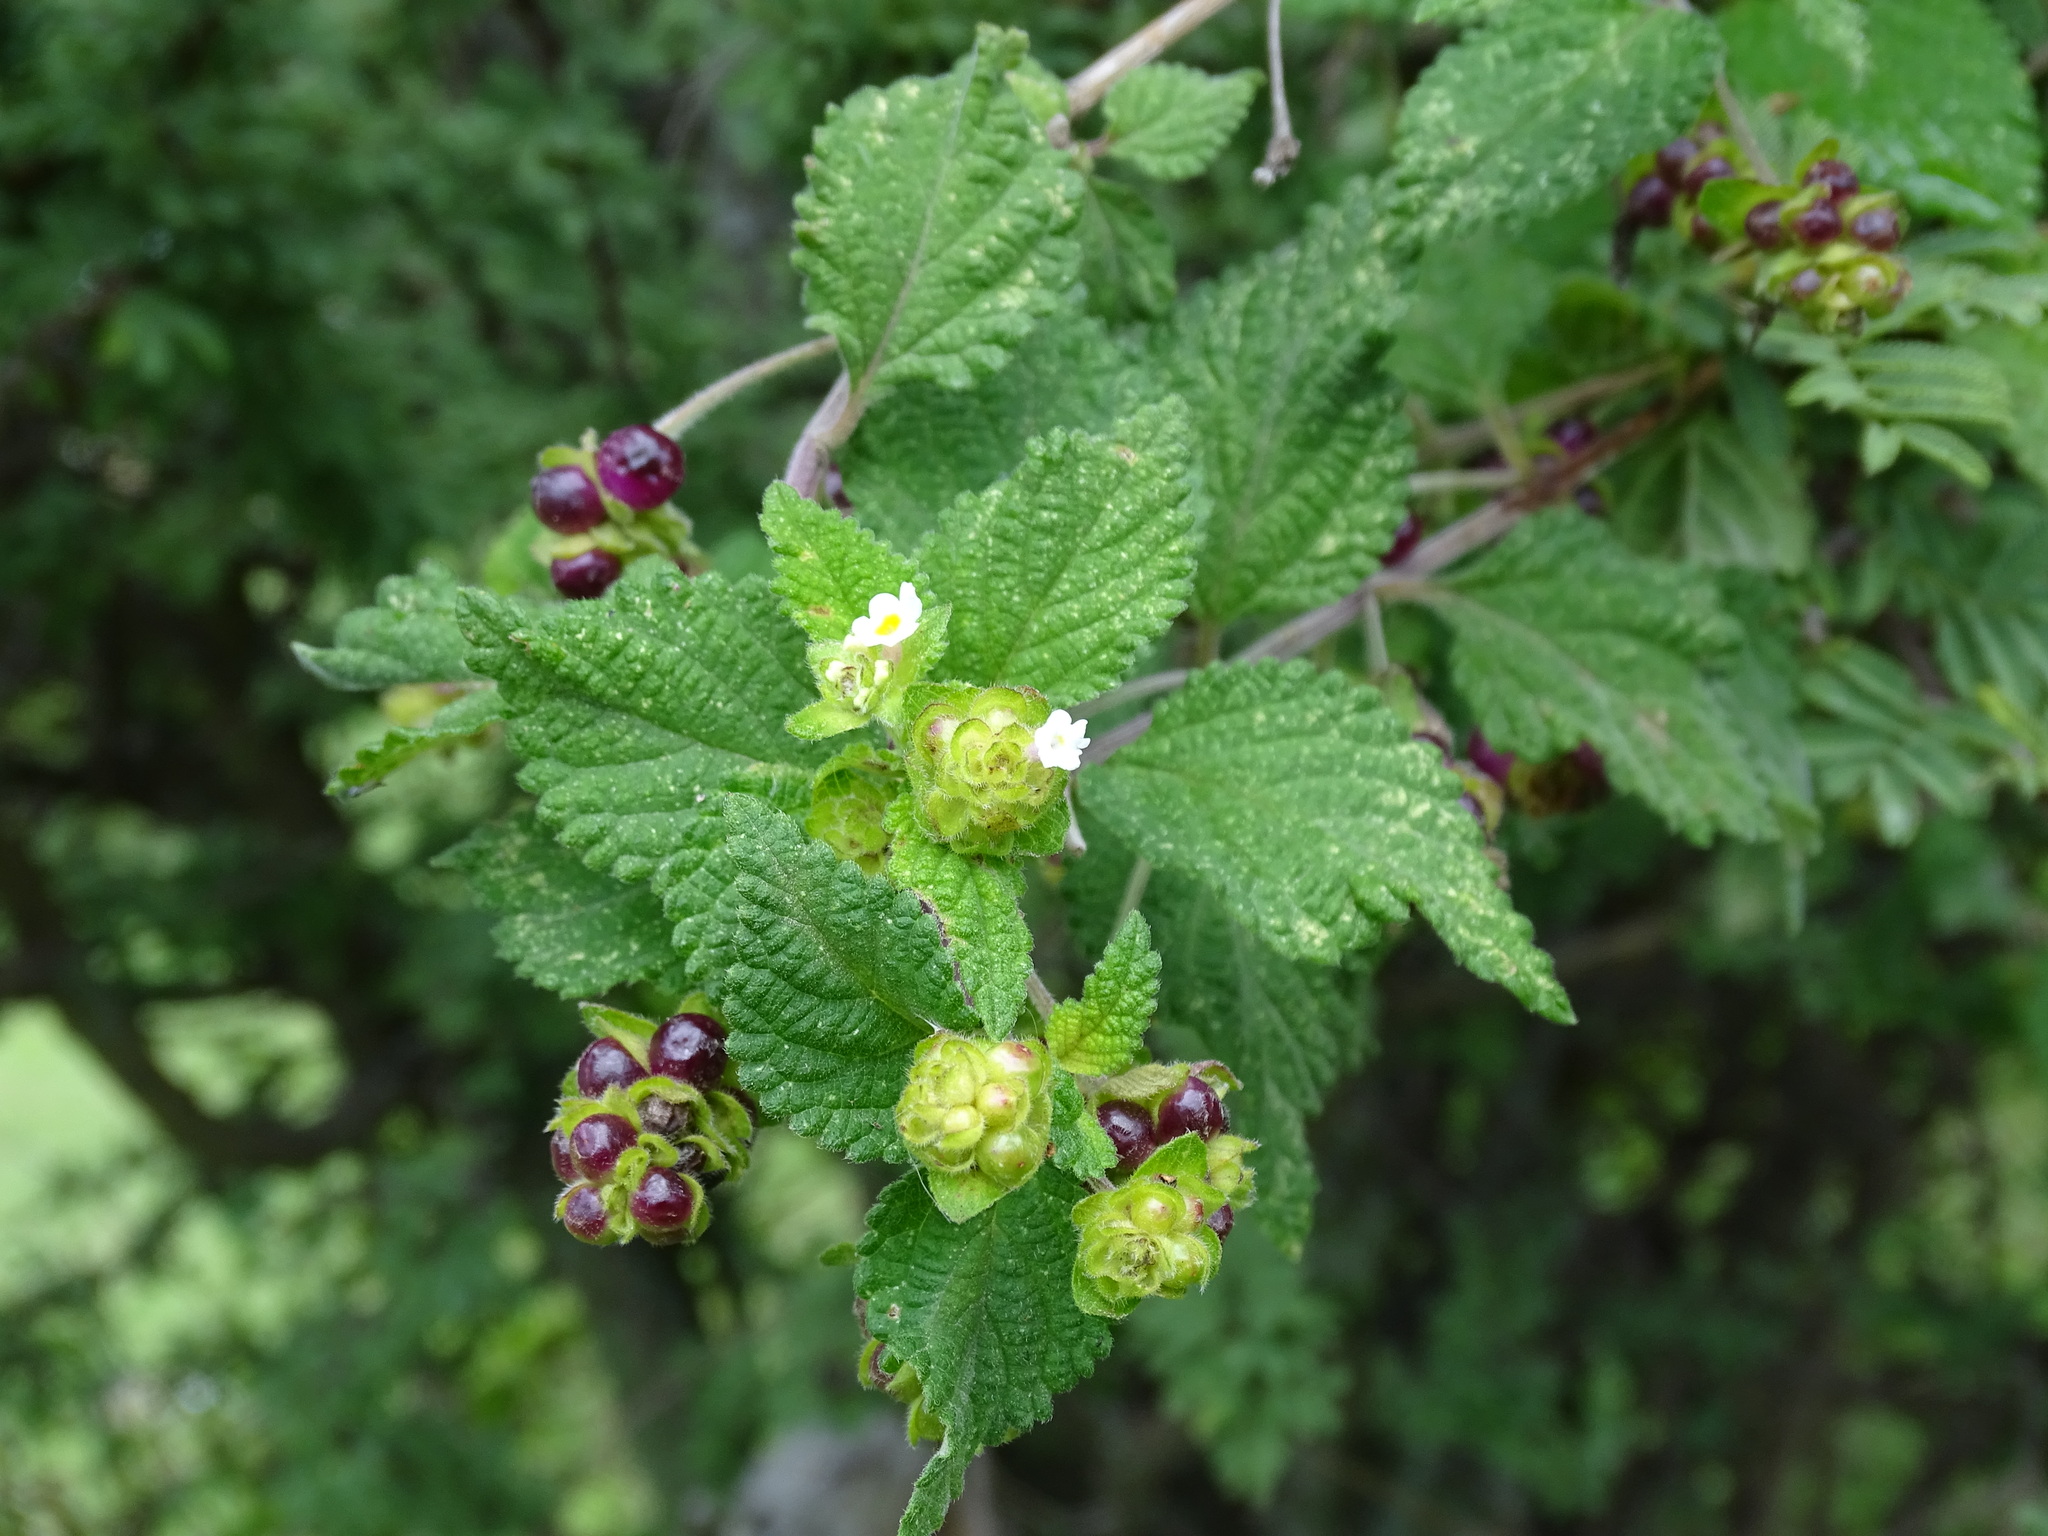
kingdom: Plantae
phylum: Tracheophyta
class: Magnoliopsida
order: Lamiales
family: Verbenaceae
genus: Lantana
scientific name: Lantana velutina
